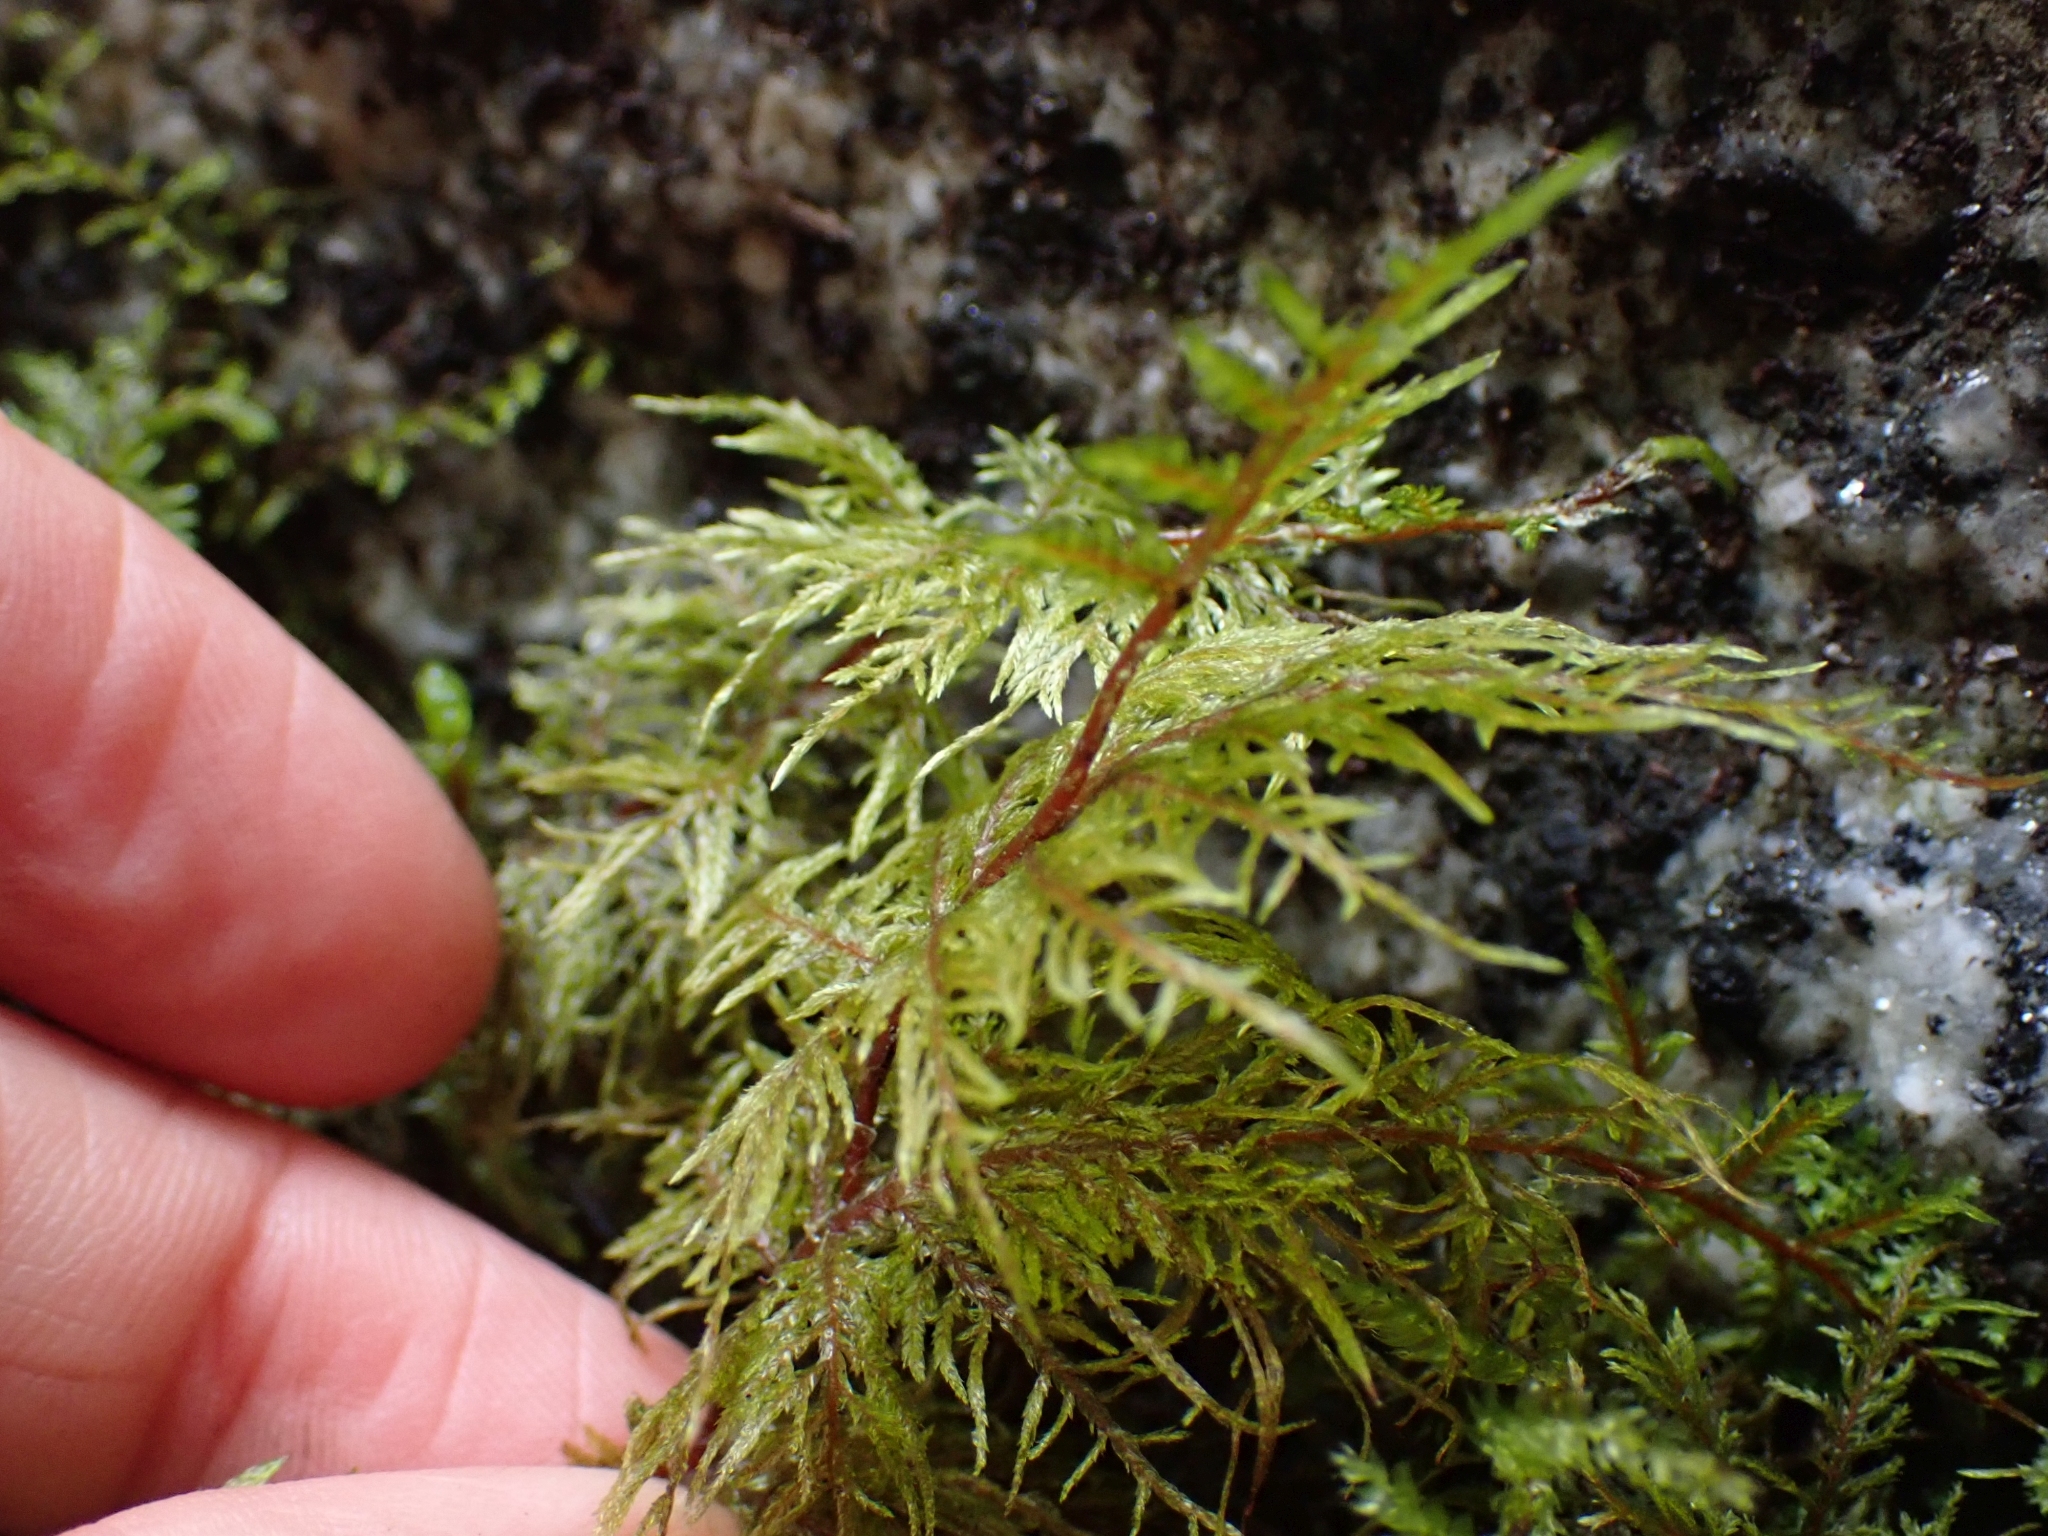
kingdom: Plantae
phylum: Bryophyta
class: Bryopsida
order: Hypnales
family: Hylocomiaceae
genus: Hylocomium
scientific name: Hylocomium splendens
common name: Stairstep moss
